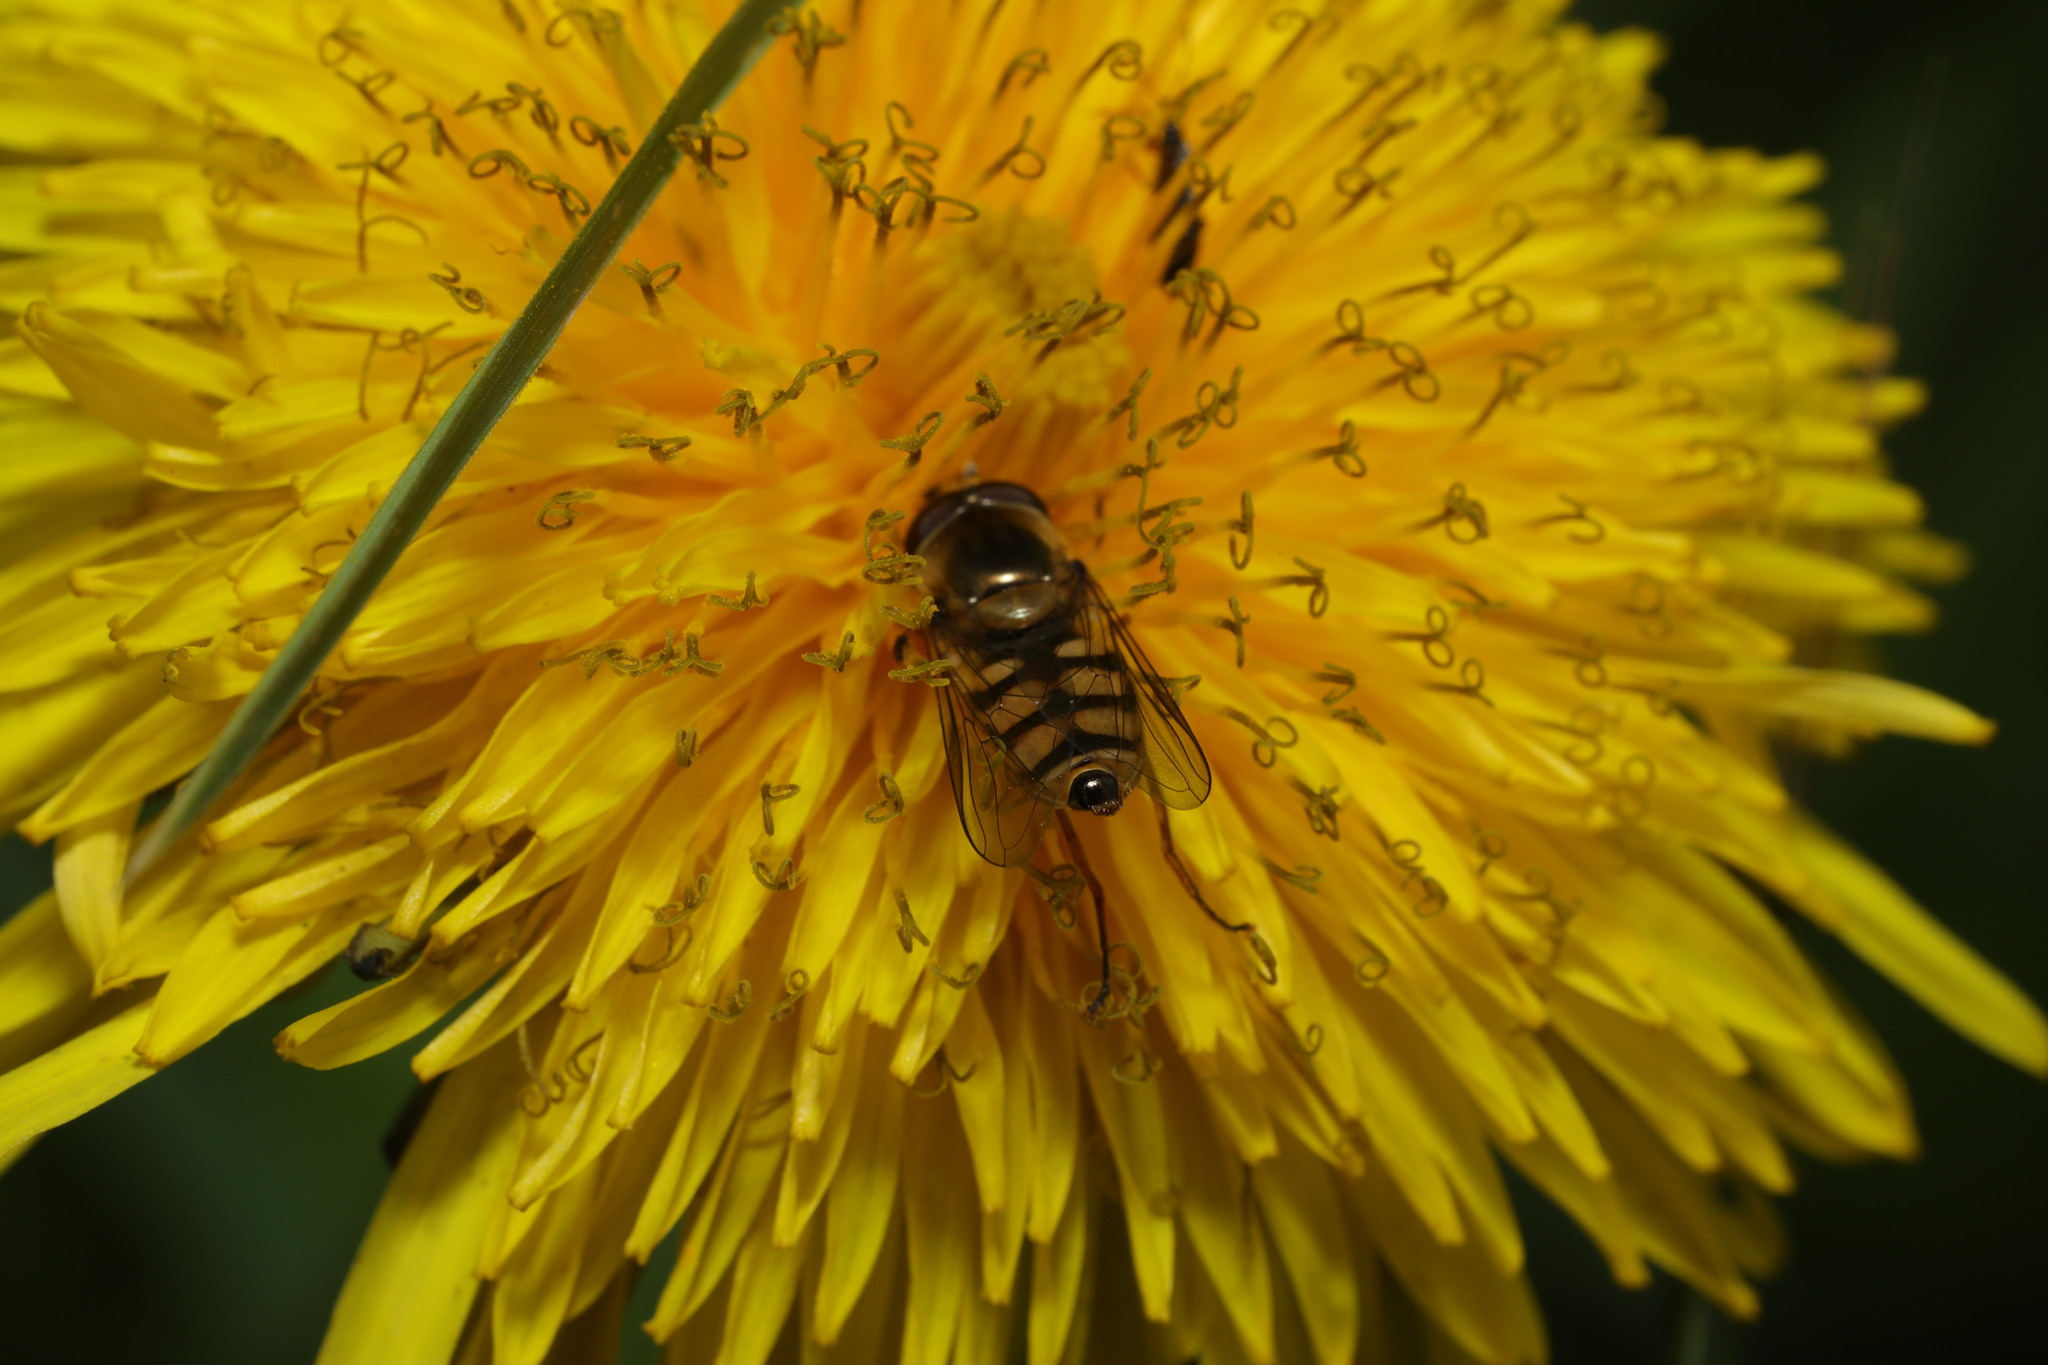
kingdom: Animalia
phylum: Arthropoda
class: Insecta
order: Diptera
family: Syrphidae
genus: Eupeodes
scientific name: Eupeodes corollae
